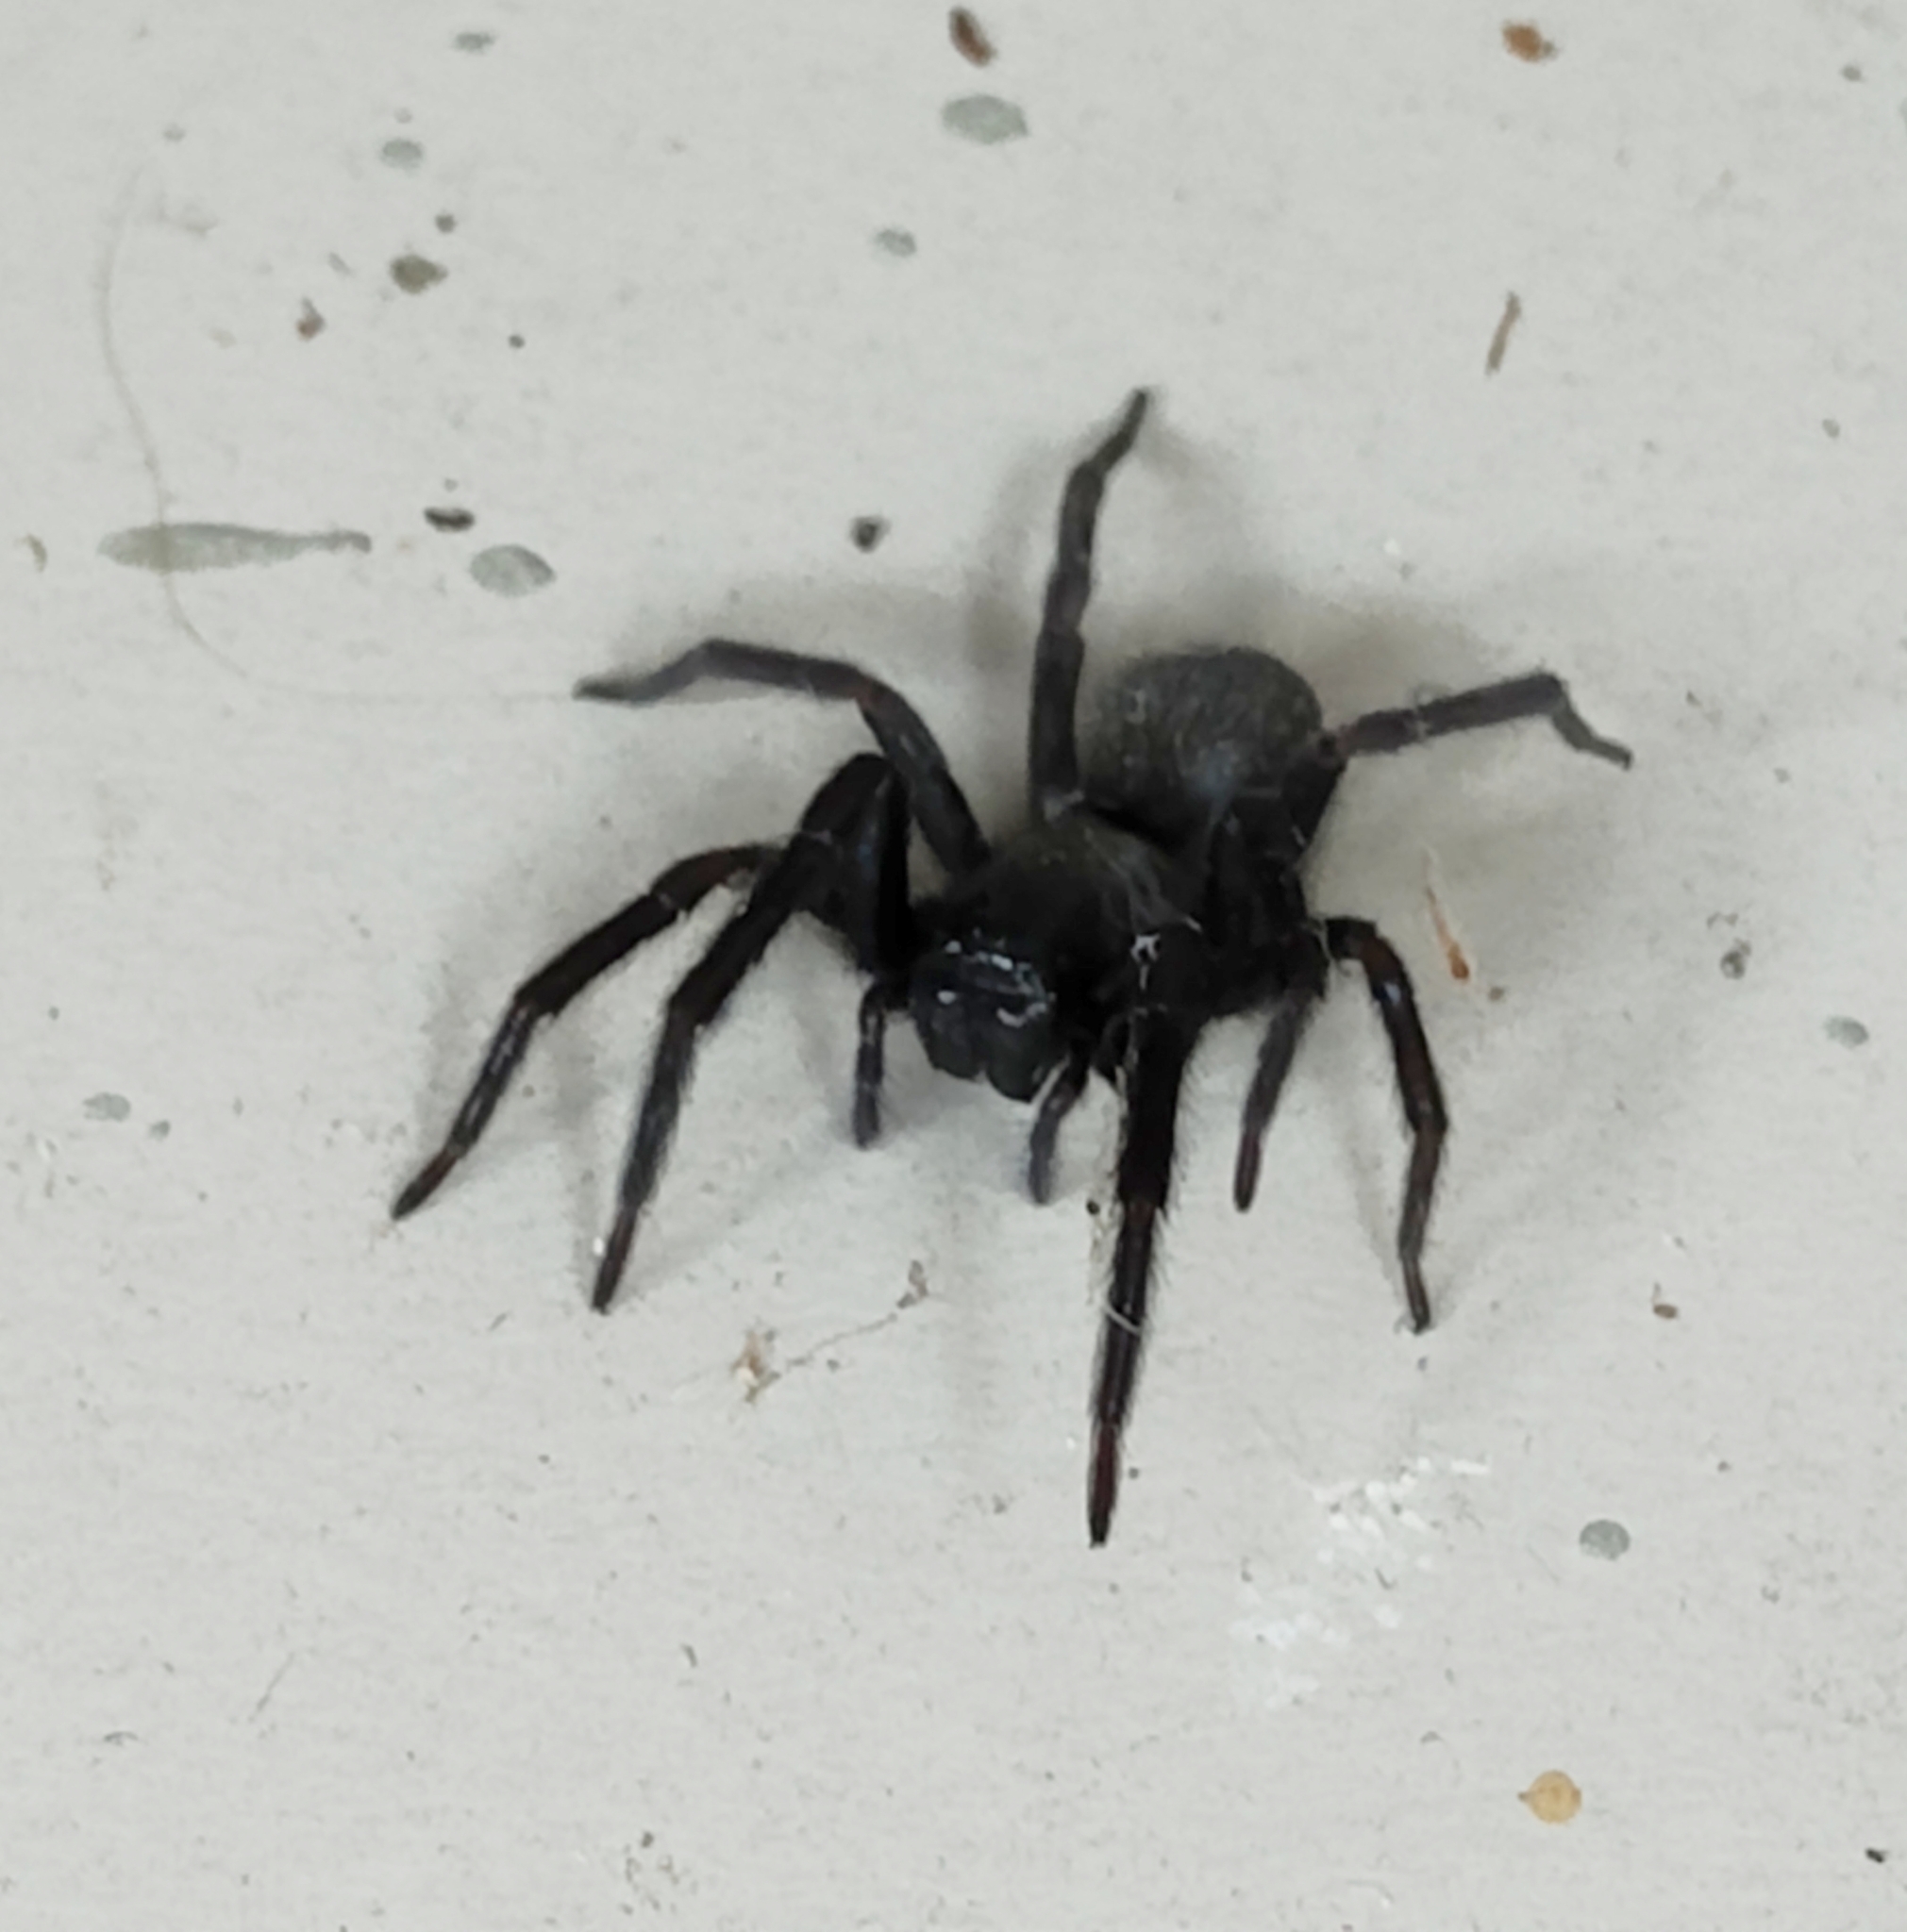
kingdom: Animalia
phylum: Arthropoda
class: Arachnida
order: Araneae
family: Desidae
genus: Badumna
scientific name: Badumna insignis
